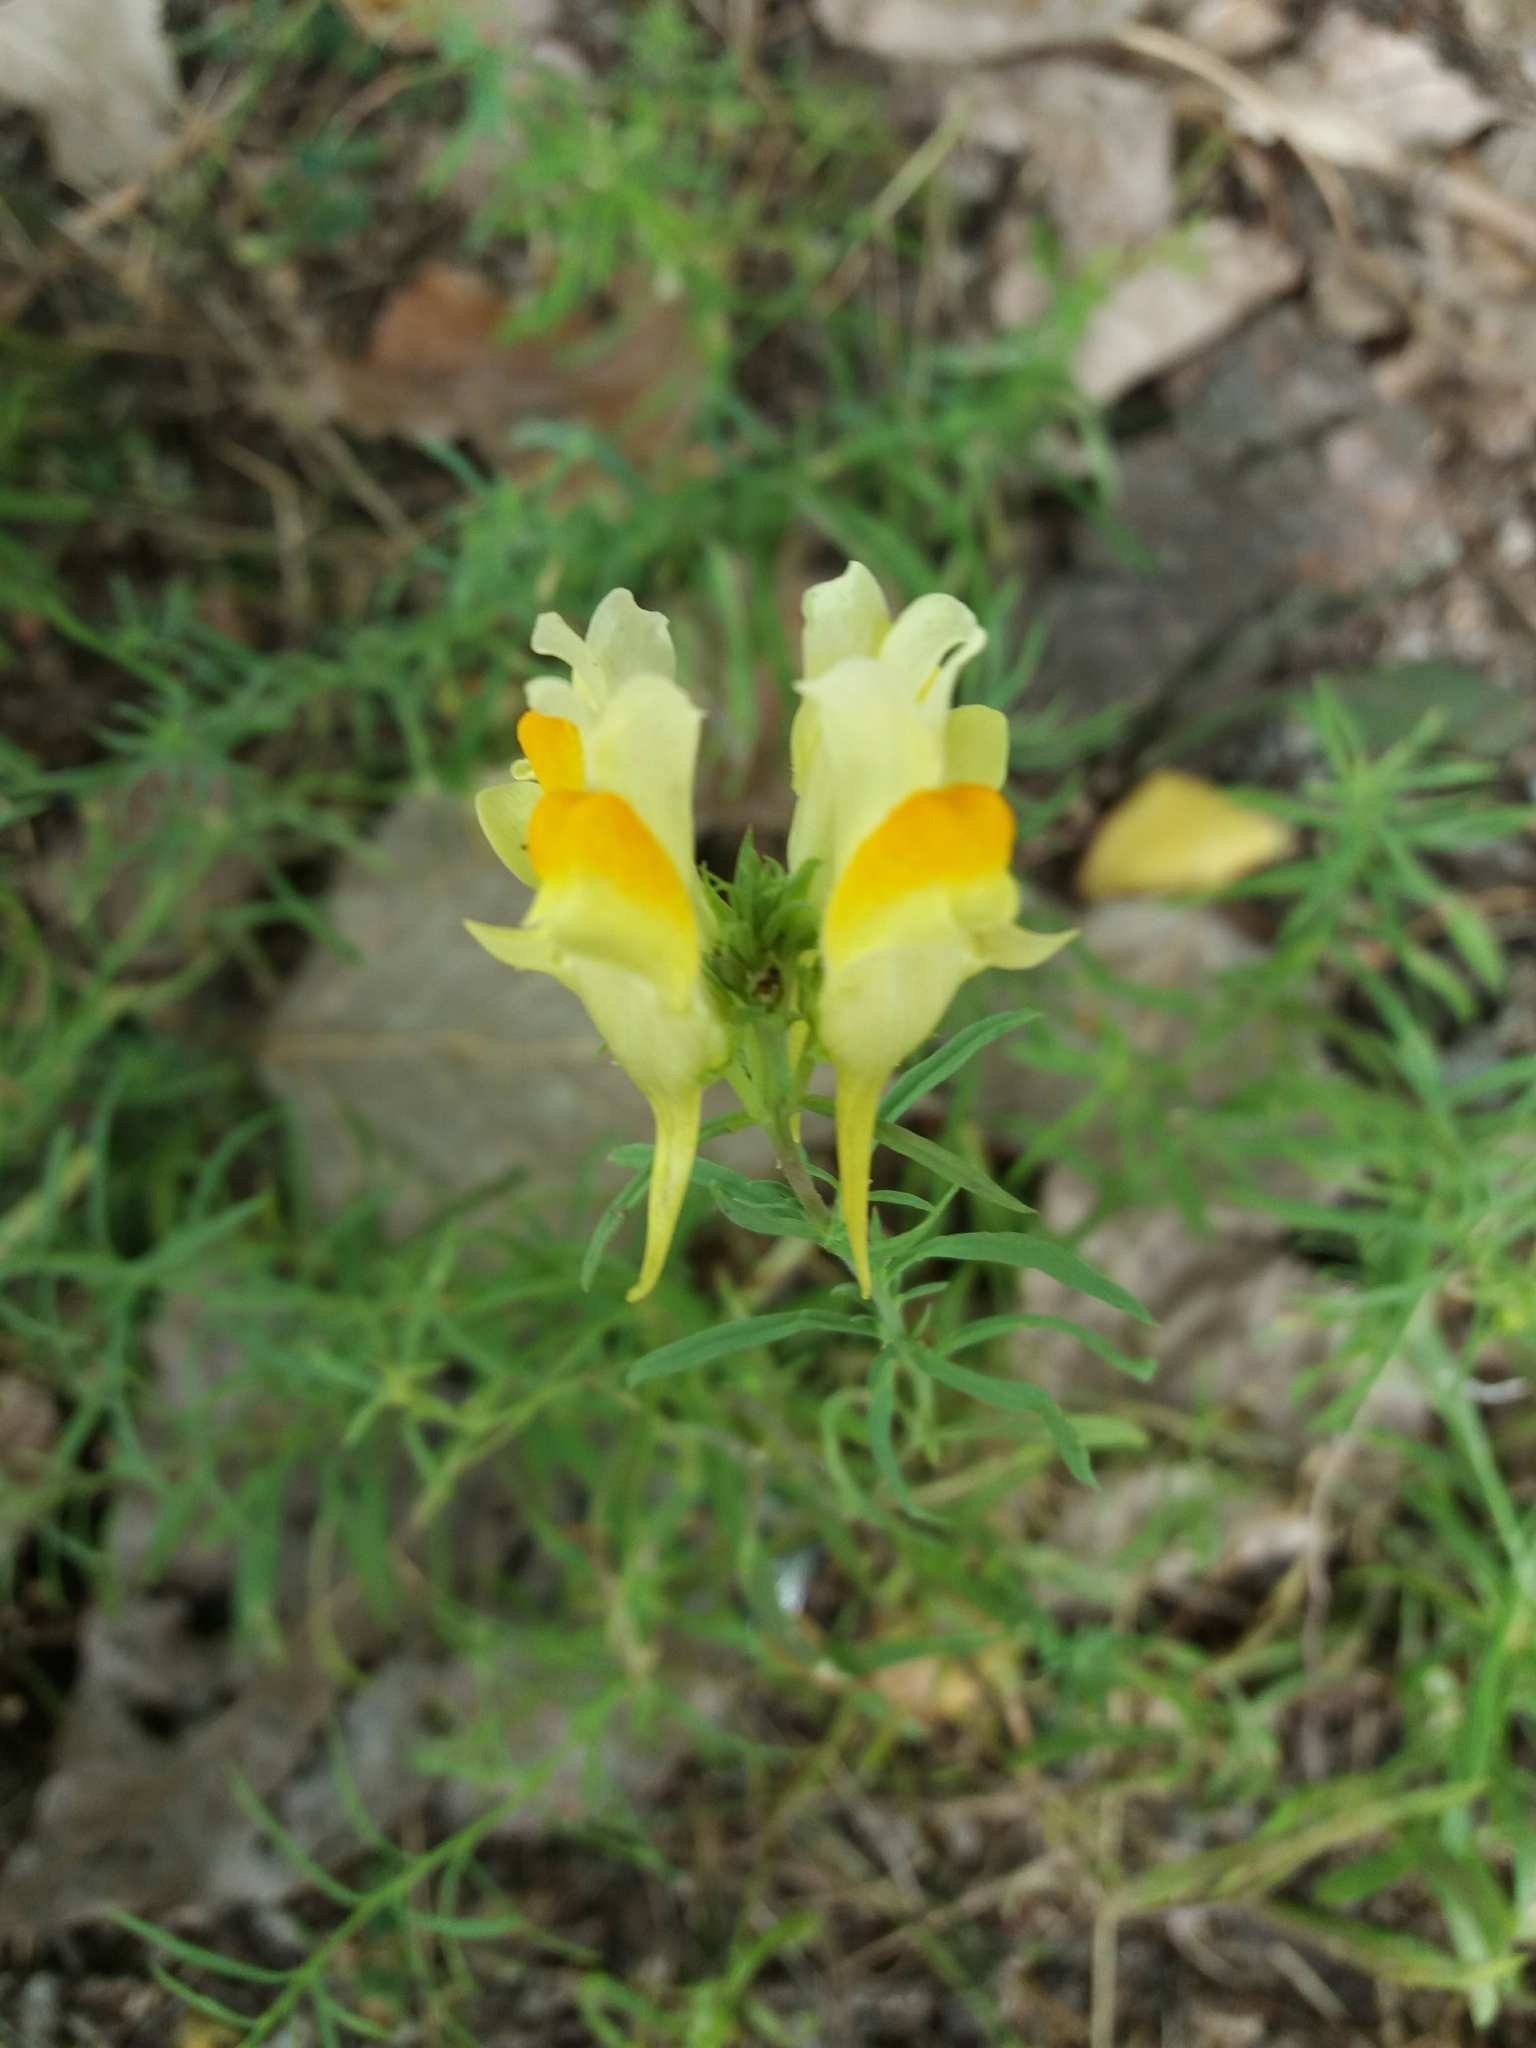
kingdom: Plantae
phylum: Tracheophyta
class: Magnoliopsida
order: Lamiales
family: Plantaginaceae
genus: Linaria
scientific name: Linaria vulgaris
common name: Butter and eggs
